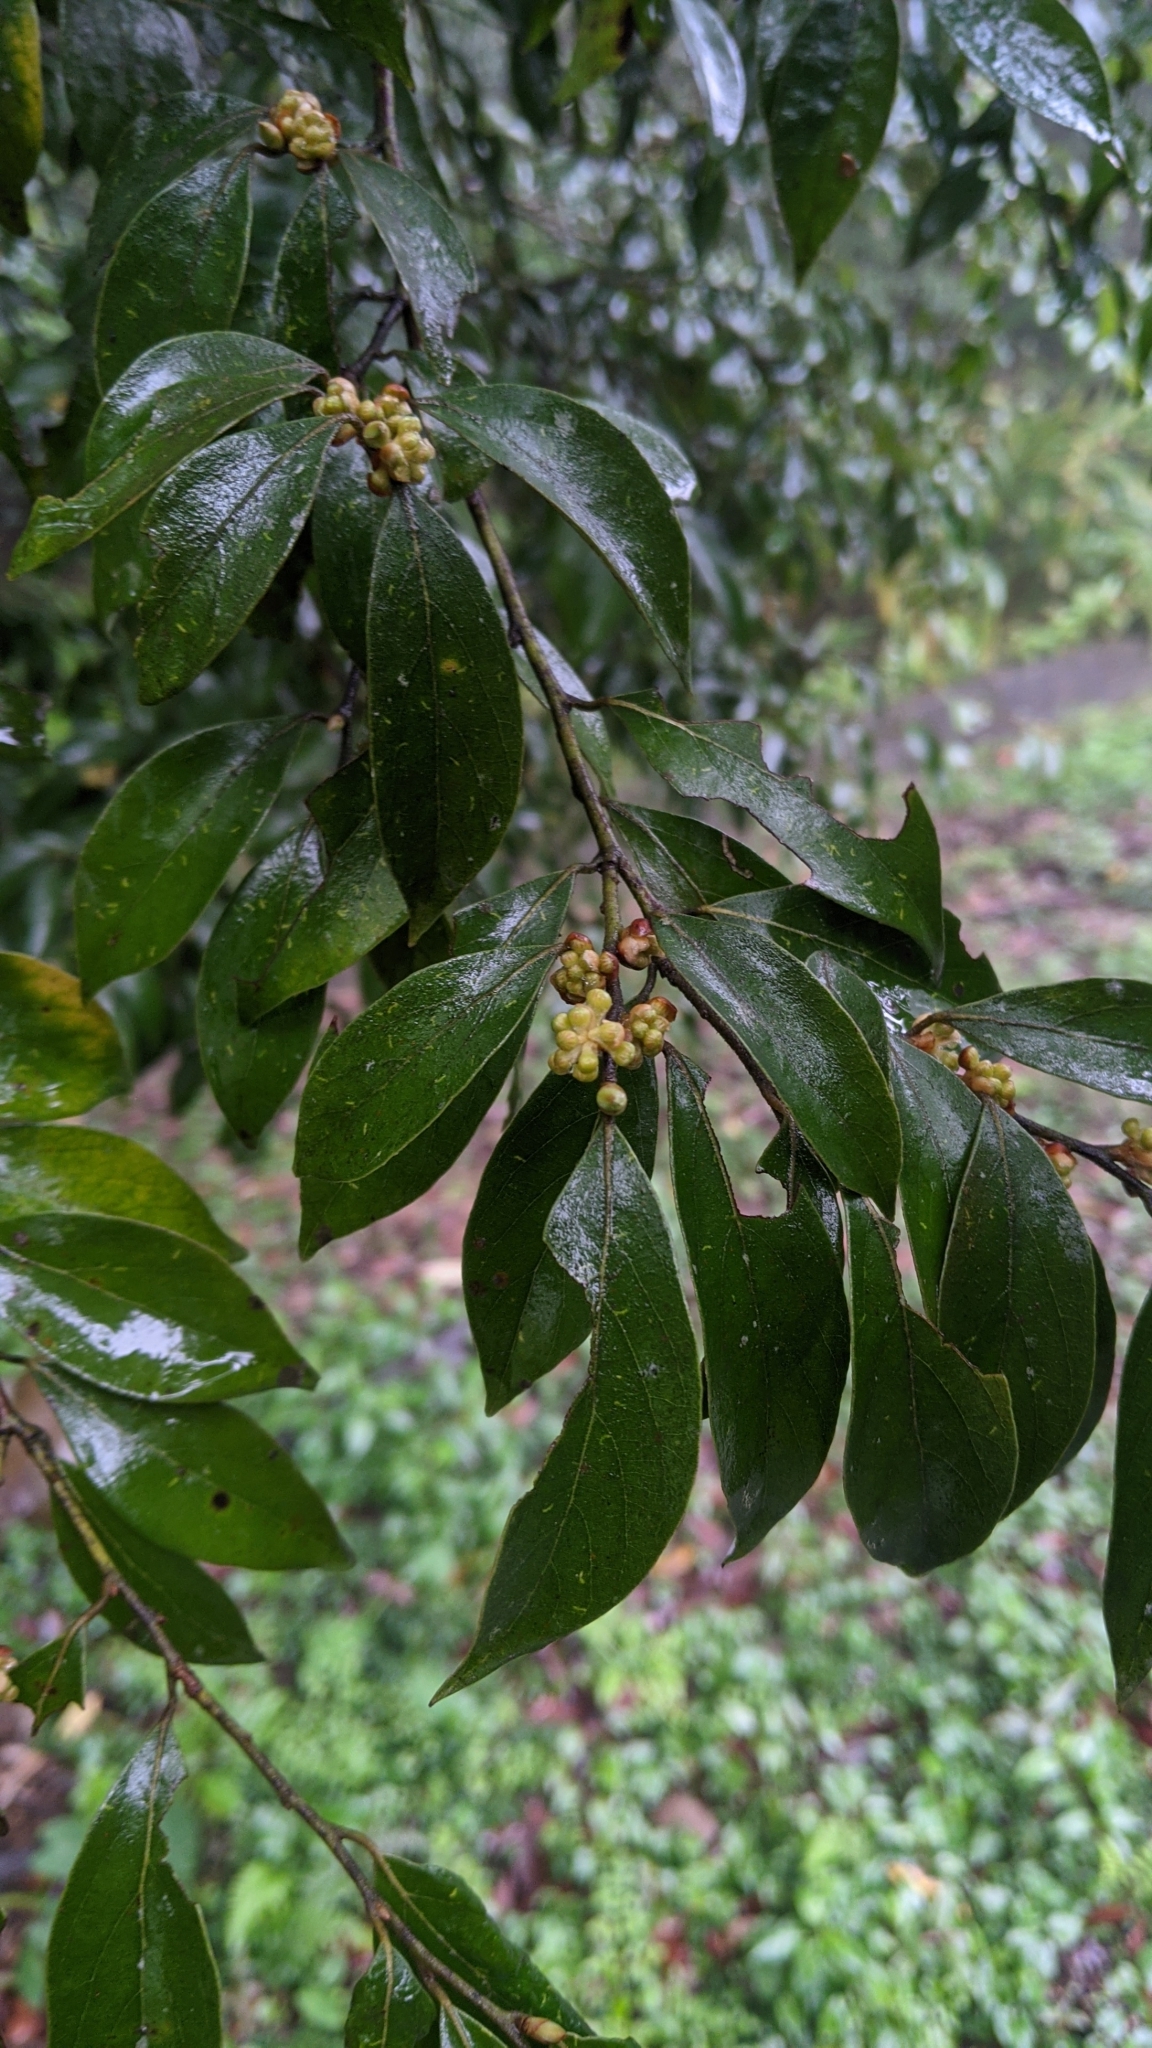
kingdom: Plantae
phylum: Tracheophyta
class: Magnoliopsida
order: Laurales
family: Lauraceae
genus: Lindera
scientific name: Lindera communis
